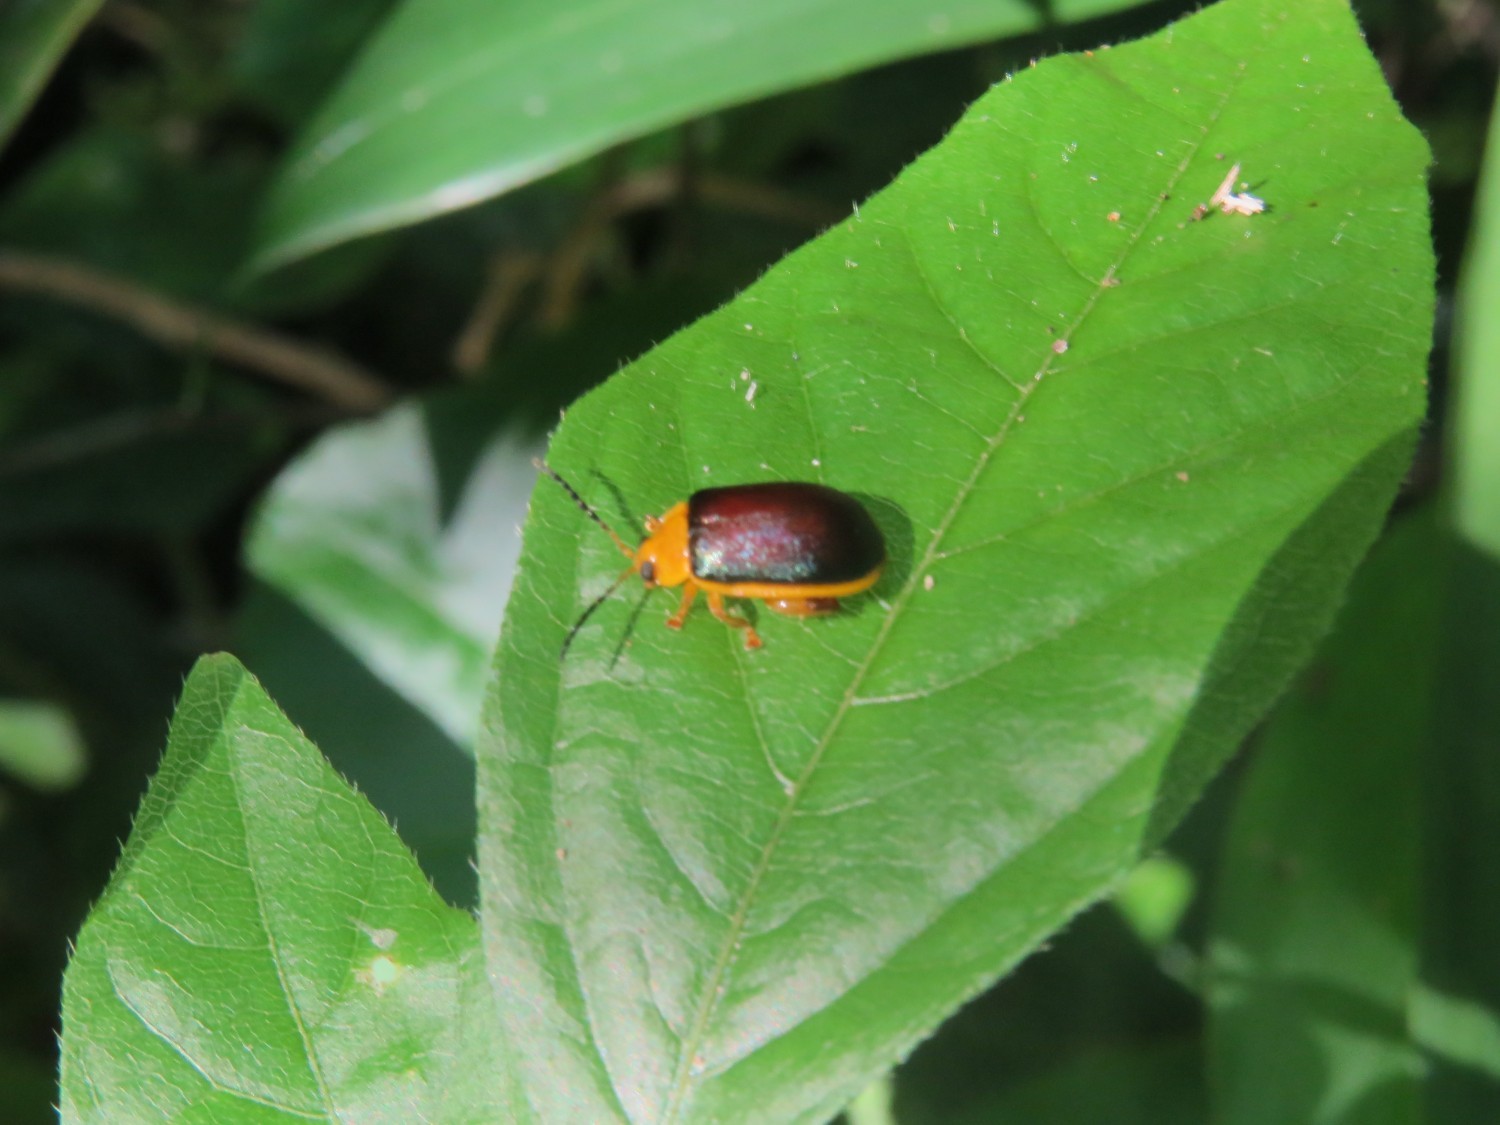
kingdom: Animalia
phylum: Arthropoda
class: Insecta
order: Coleoptera
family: Chrysomelidae
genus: Paranaita
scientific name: Paranaita
